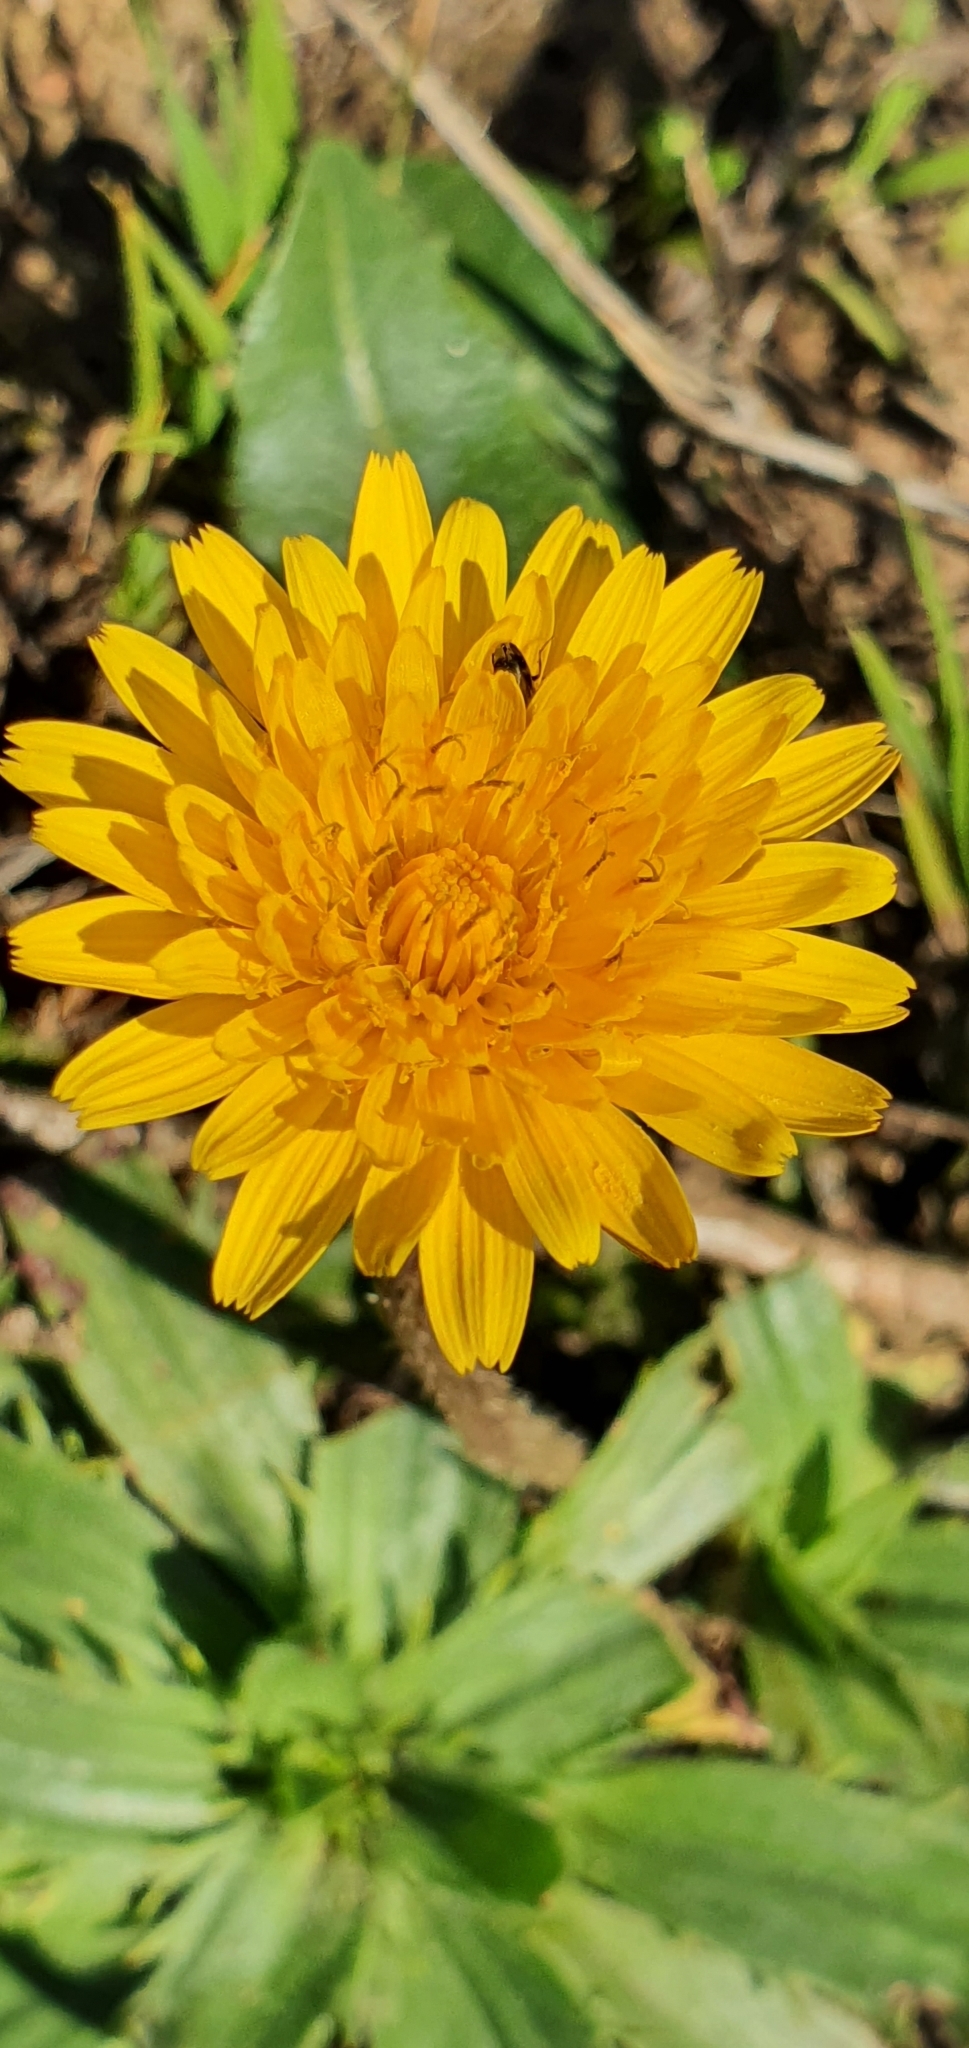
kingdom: Plantae
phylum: Tracheophyta
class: Magnoliopsida
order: Asterales
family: Asteraceae
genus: Leontodon
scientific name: Leontodon tuberosus
